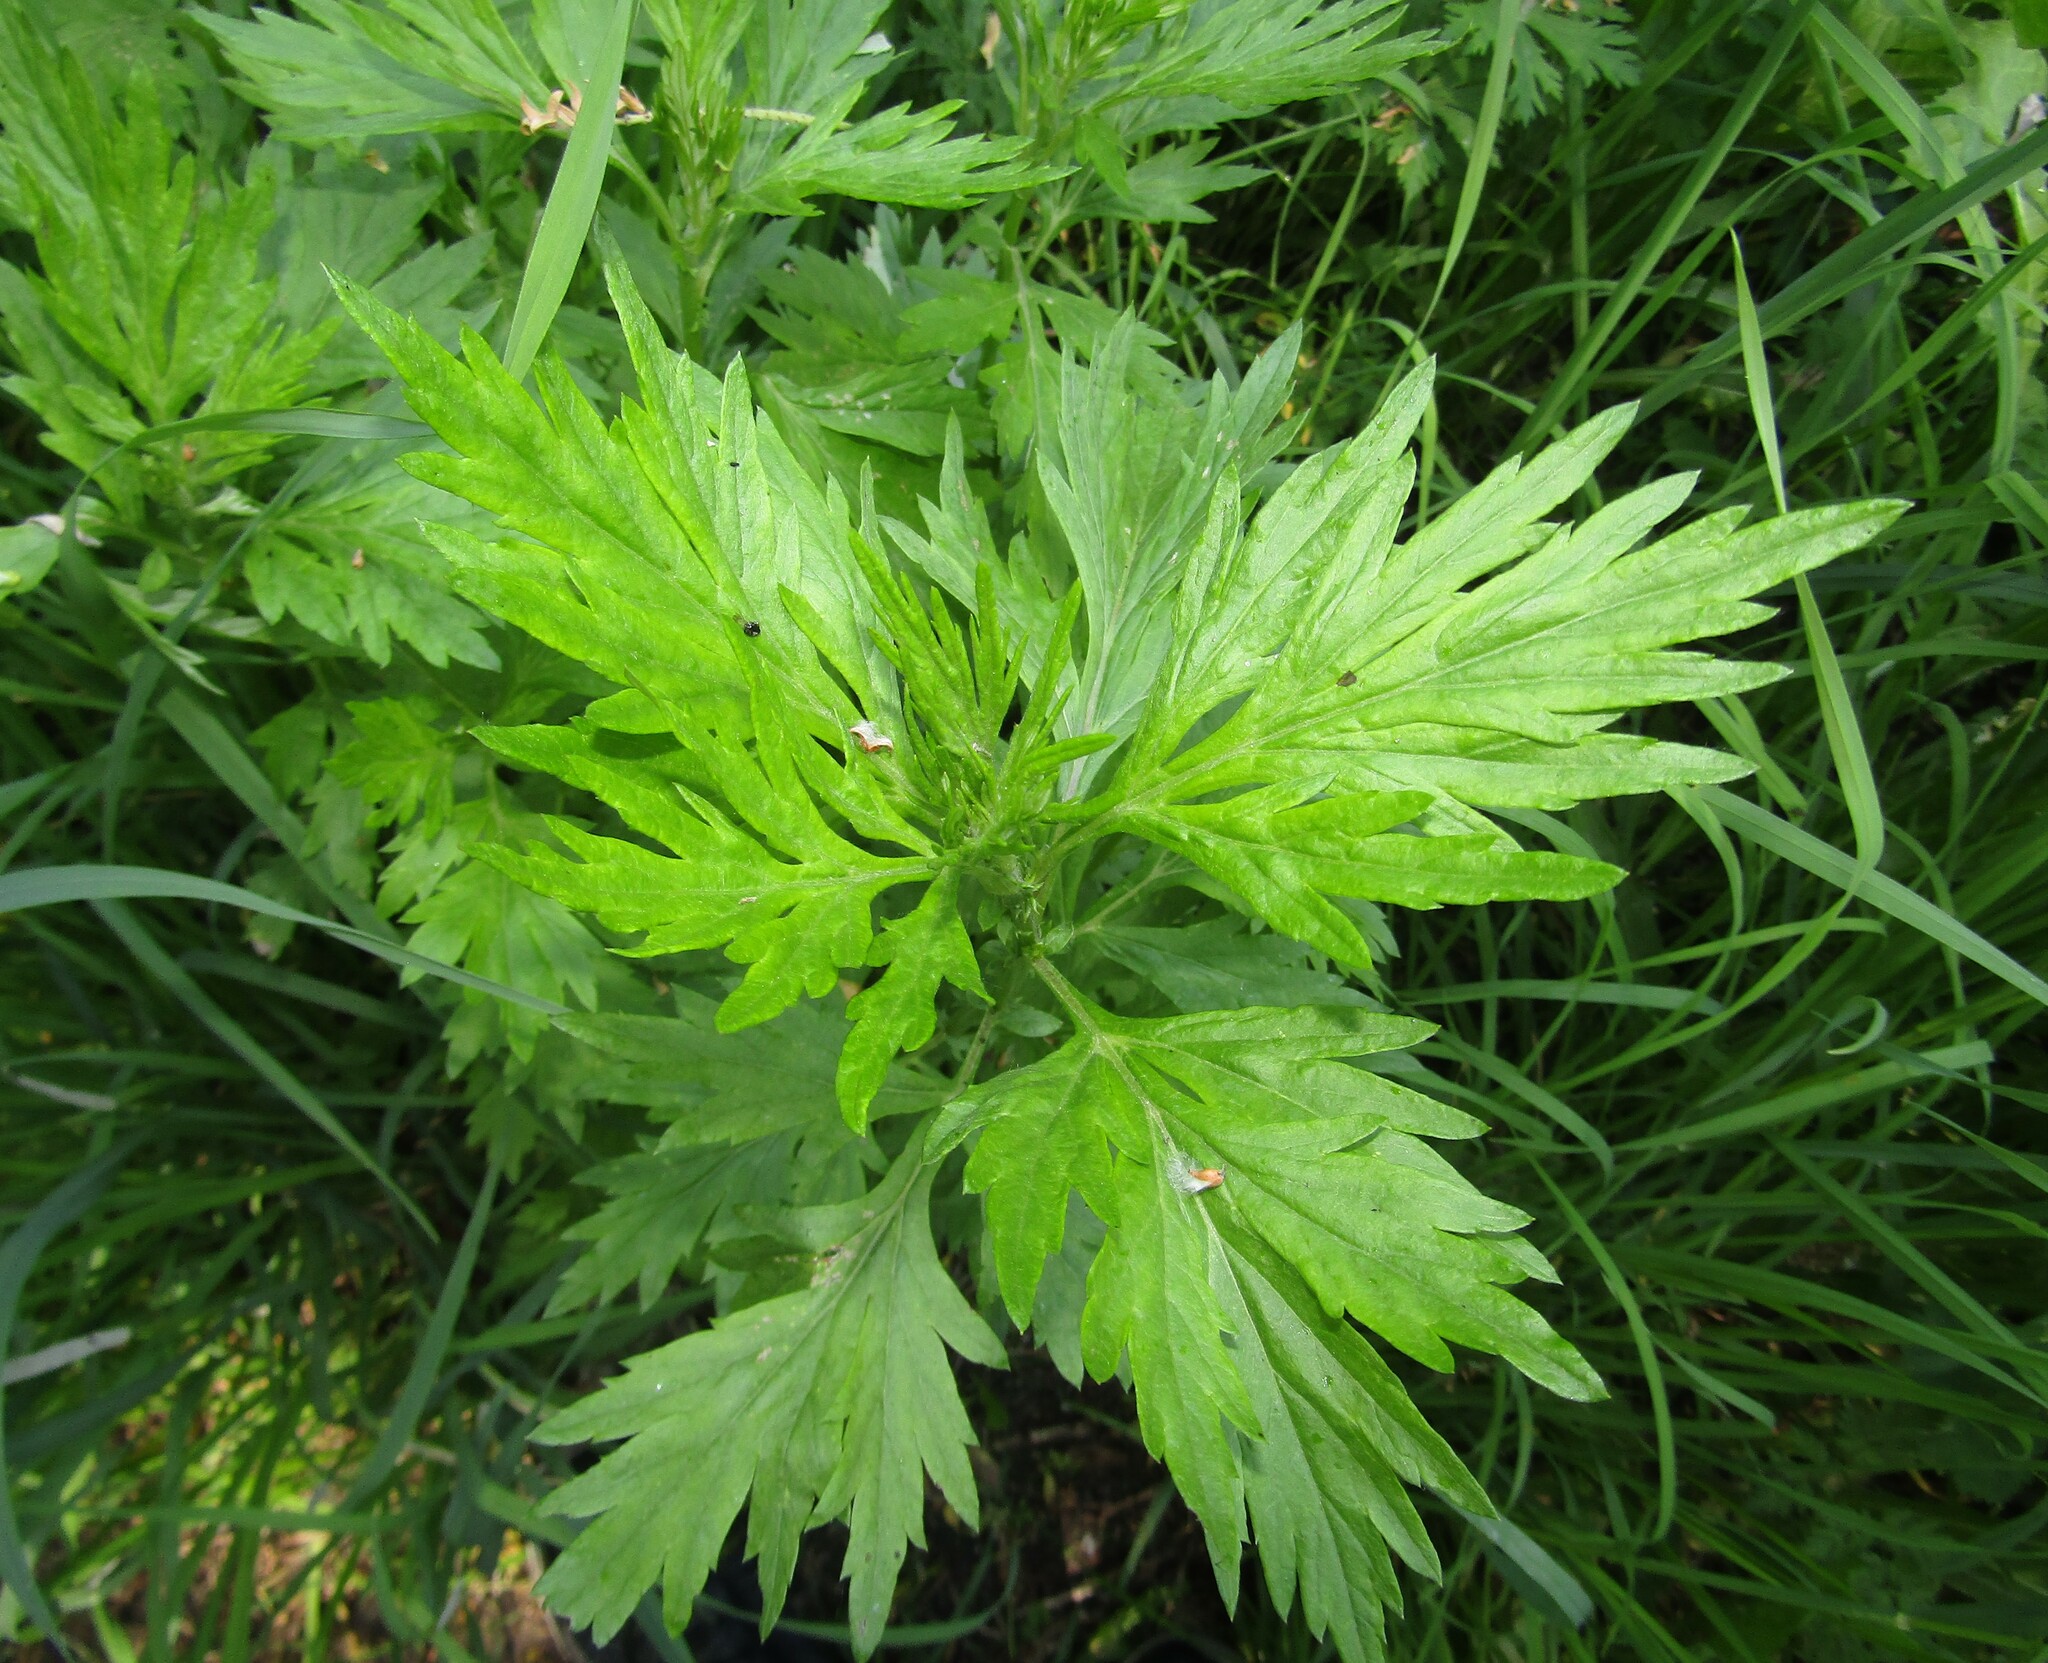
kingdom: Plantae
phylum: Tracheophyta
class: Magnoliopsida
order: Asterales
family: Asteraceae
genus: Artemisia
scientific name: Artemisia vulgaris
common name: Mugwort
